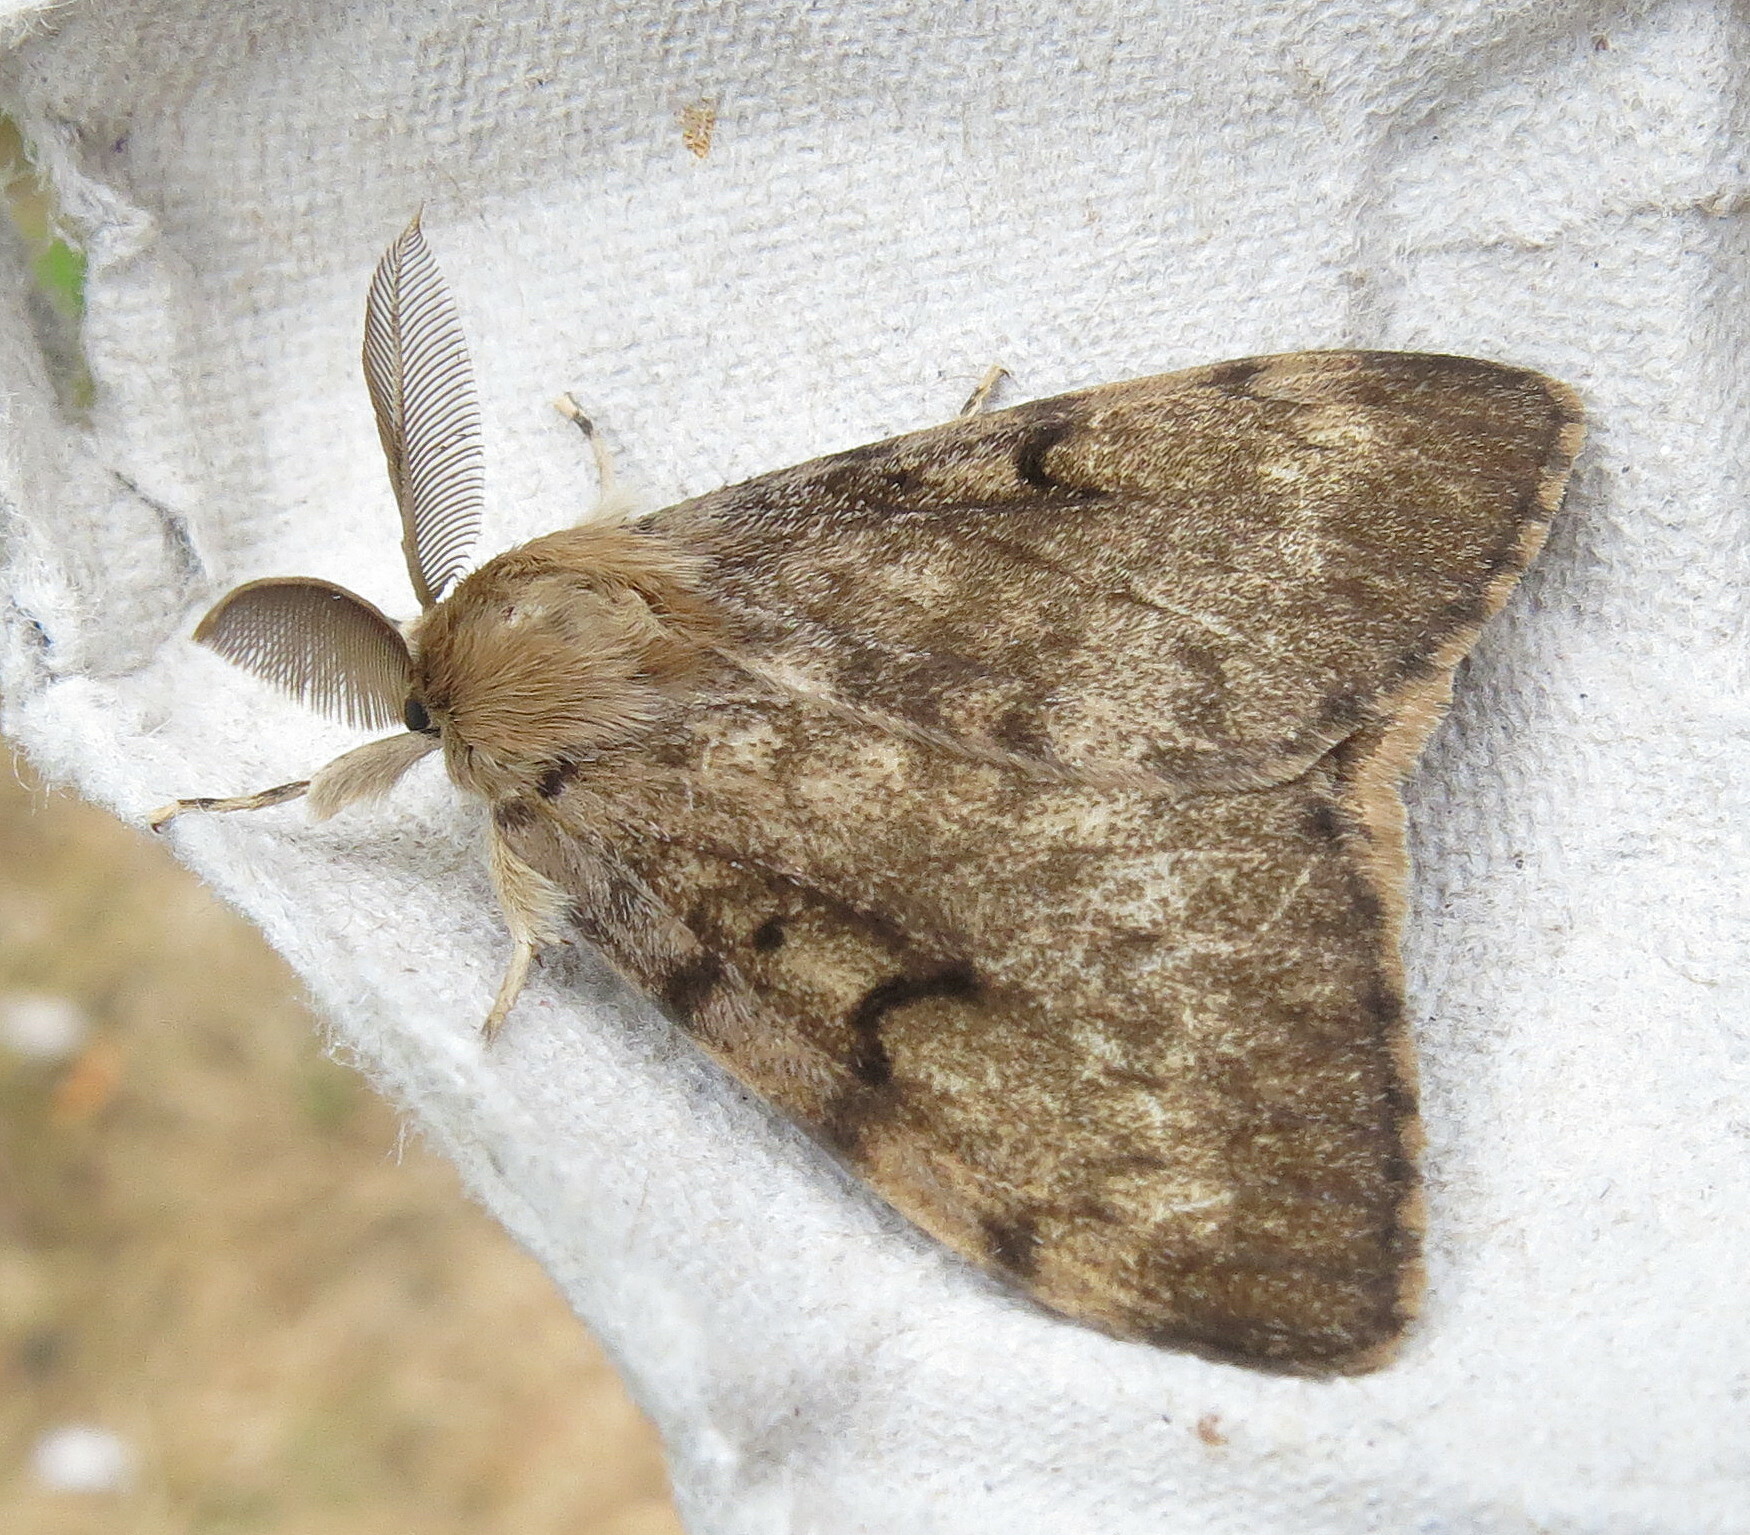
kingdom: Animalia
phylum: Arthropoda
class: Insecta
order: Lepidoptera
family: Erebidae
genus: Lymantria
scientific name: Lymantria dispar
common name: Gypsy moth
